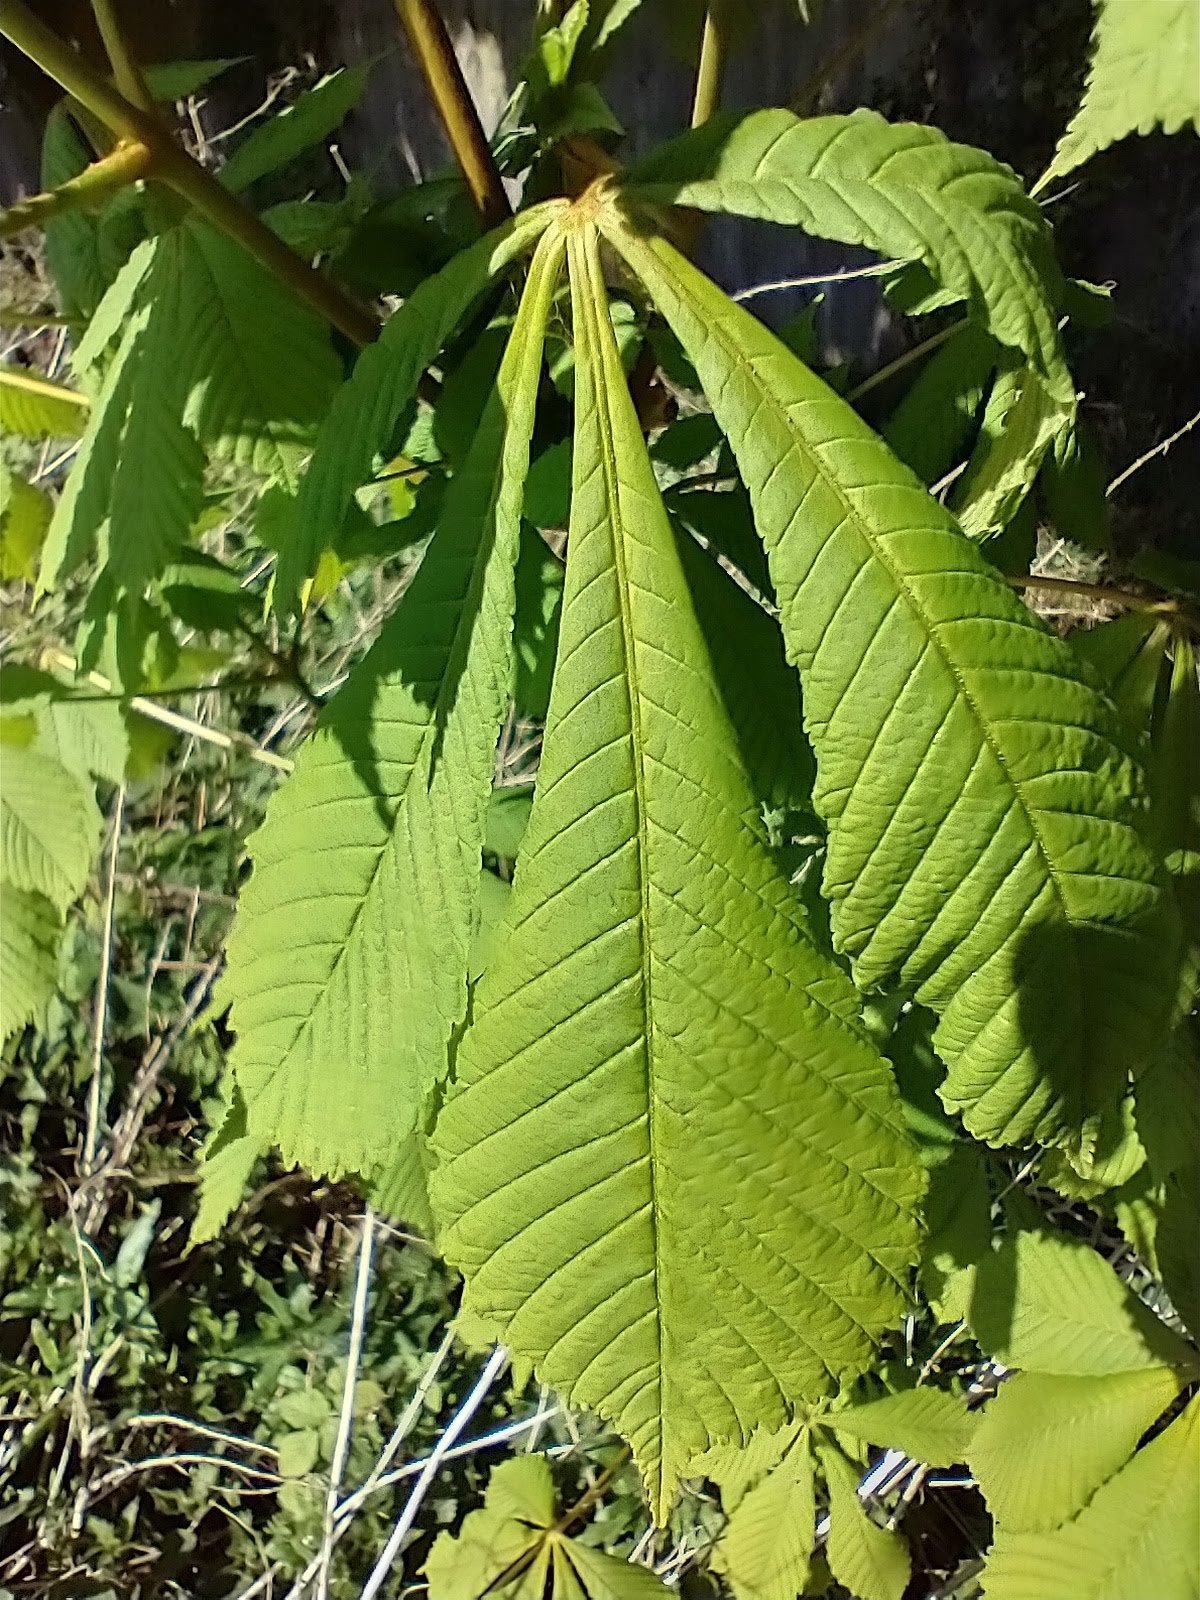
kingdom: Plantae
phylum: Tracheophyta
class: Magnoliopsida
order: Sapindales
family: Sapindaceae
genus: Aesculus
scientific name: Aesculus hippocastanum
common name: Horse-chestnut
